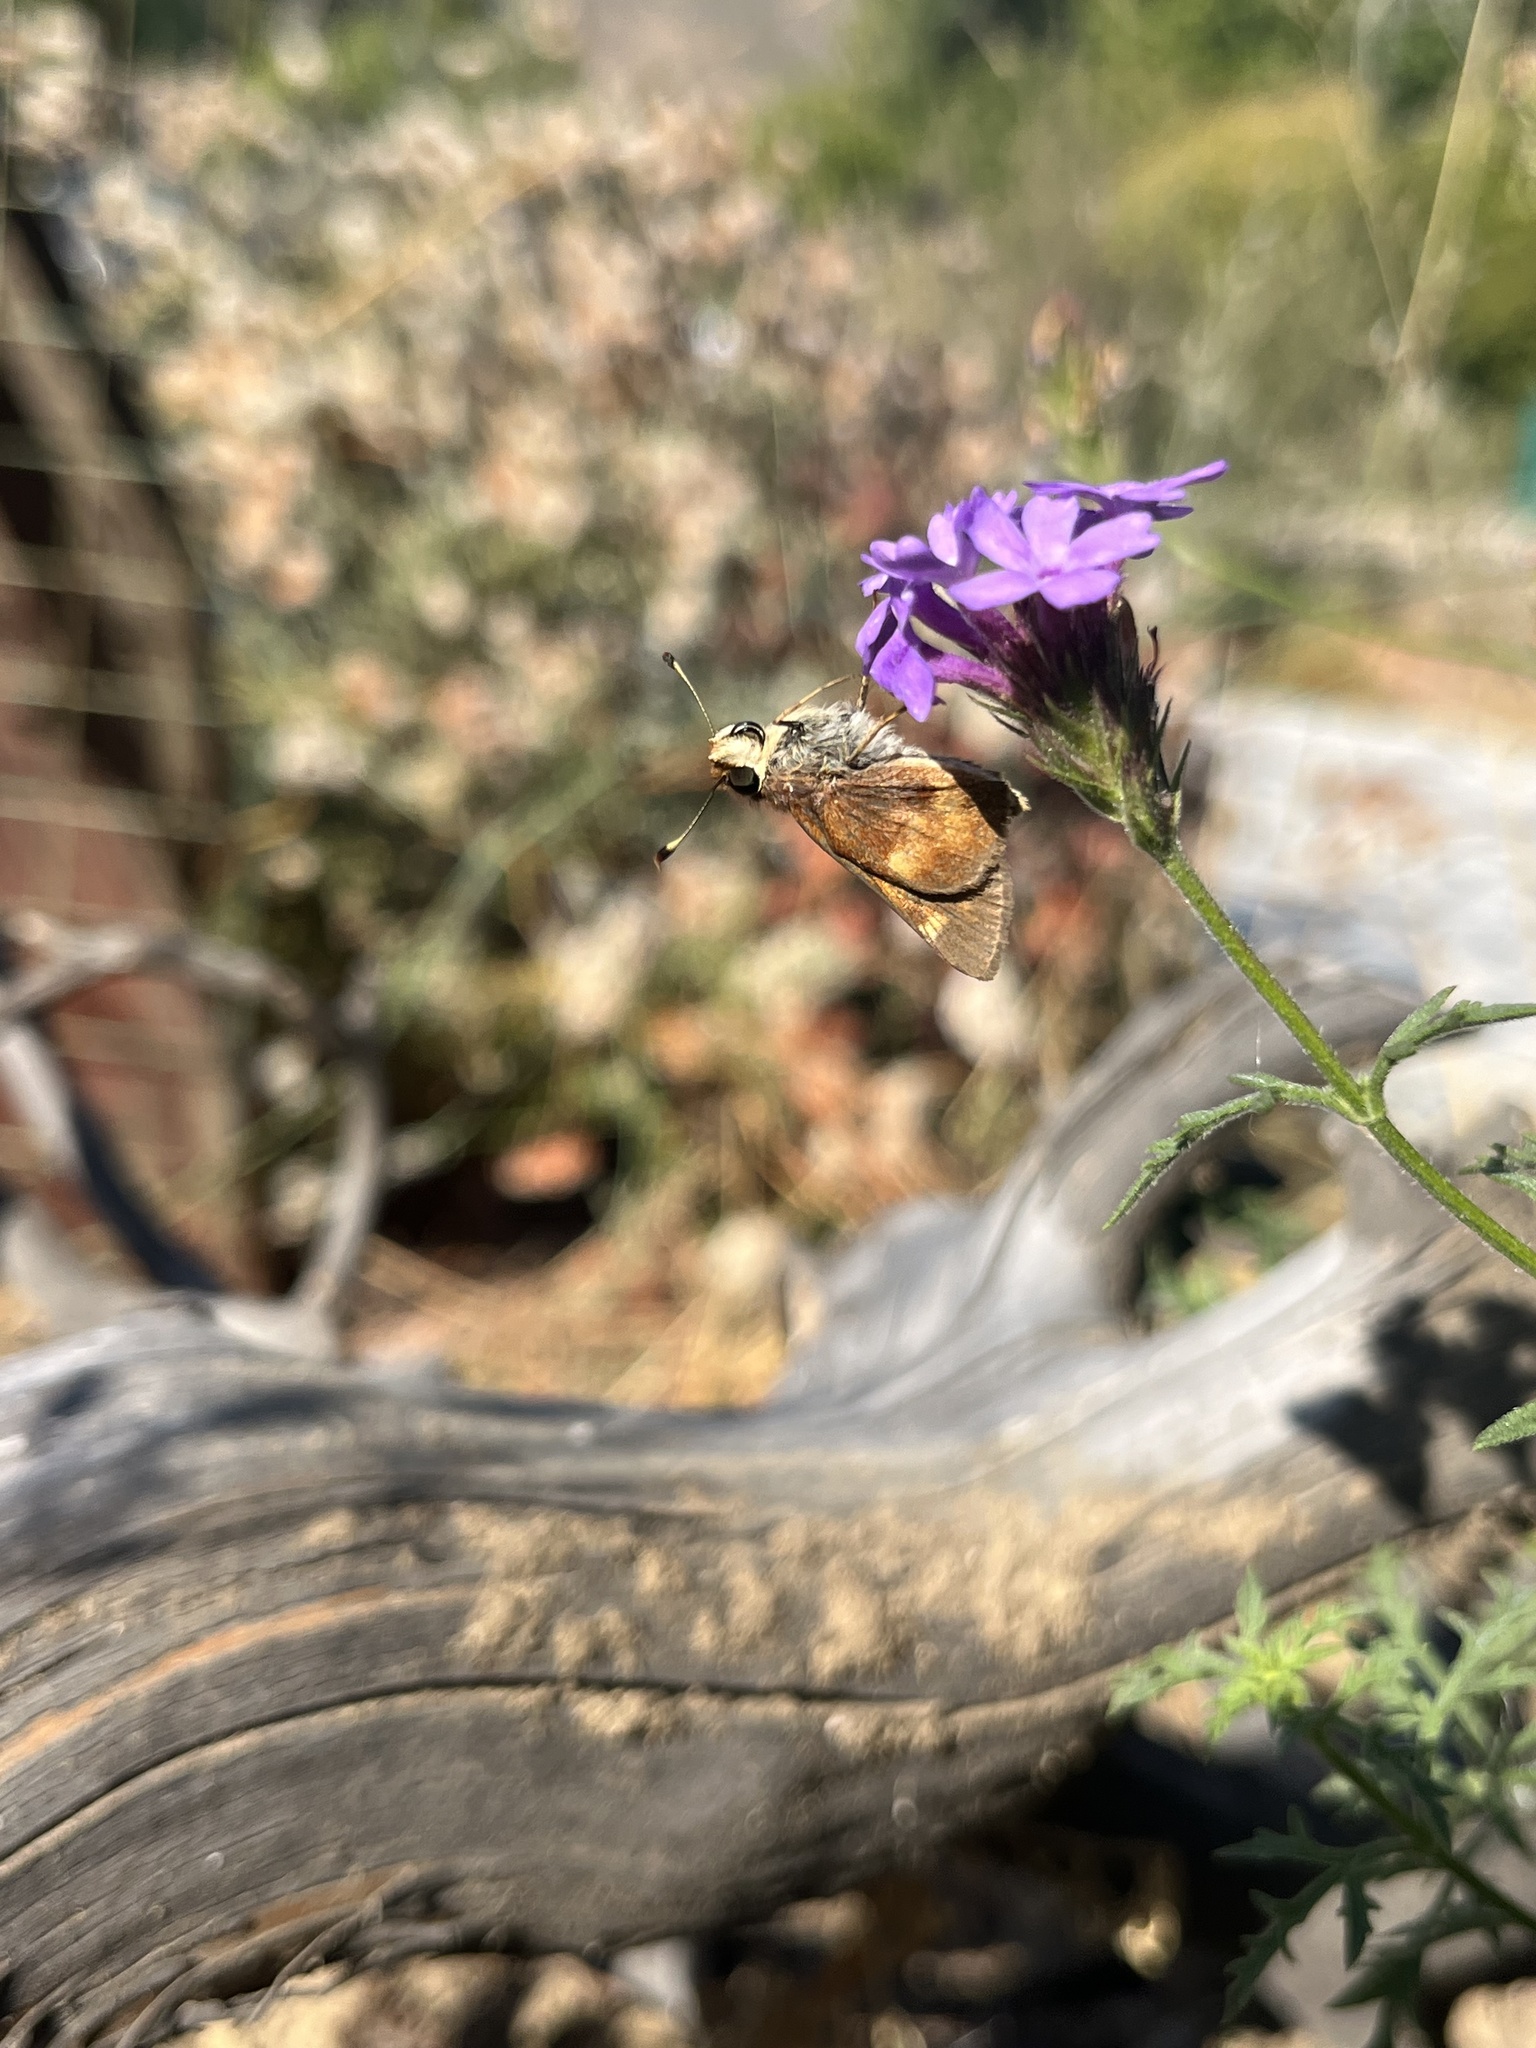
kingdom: Animalia
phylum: Arthropoda
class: Insecta
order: Lepidoptera
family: Hesperiidae
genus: Hylephila
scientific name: Hylephila phyleus
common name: Fiery skipper
